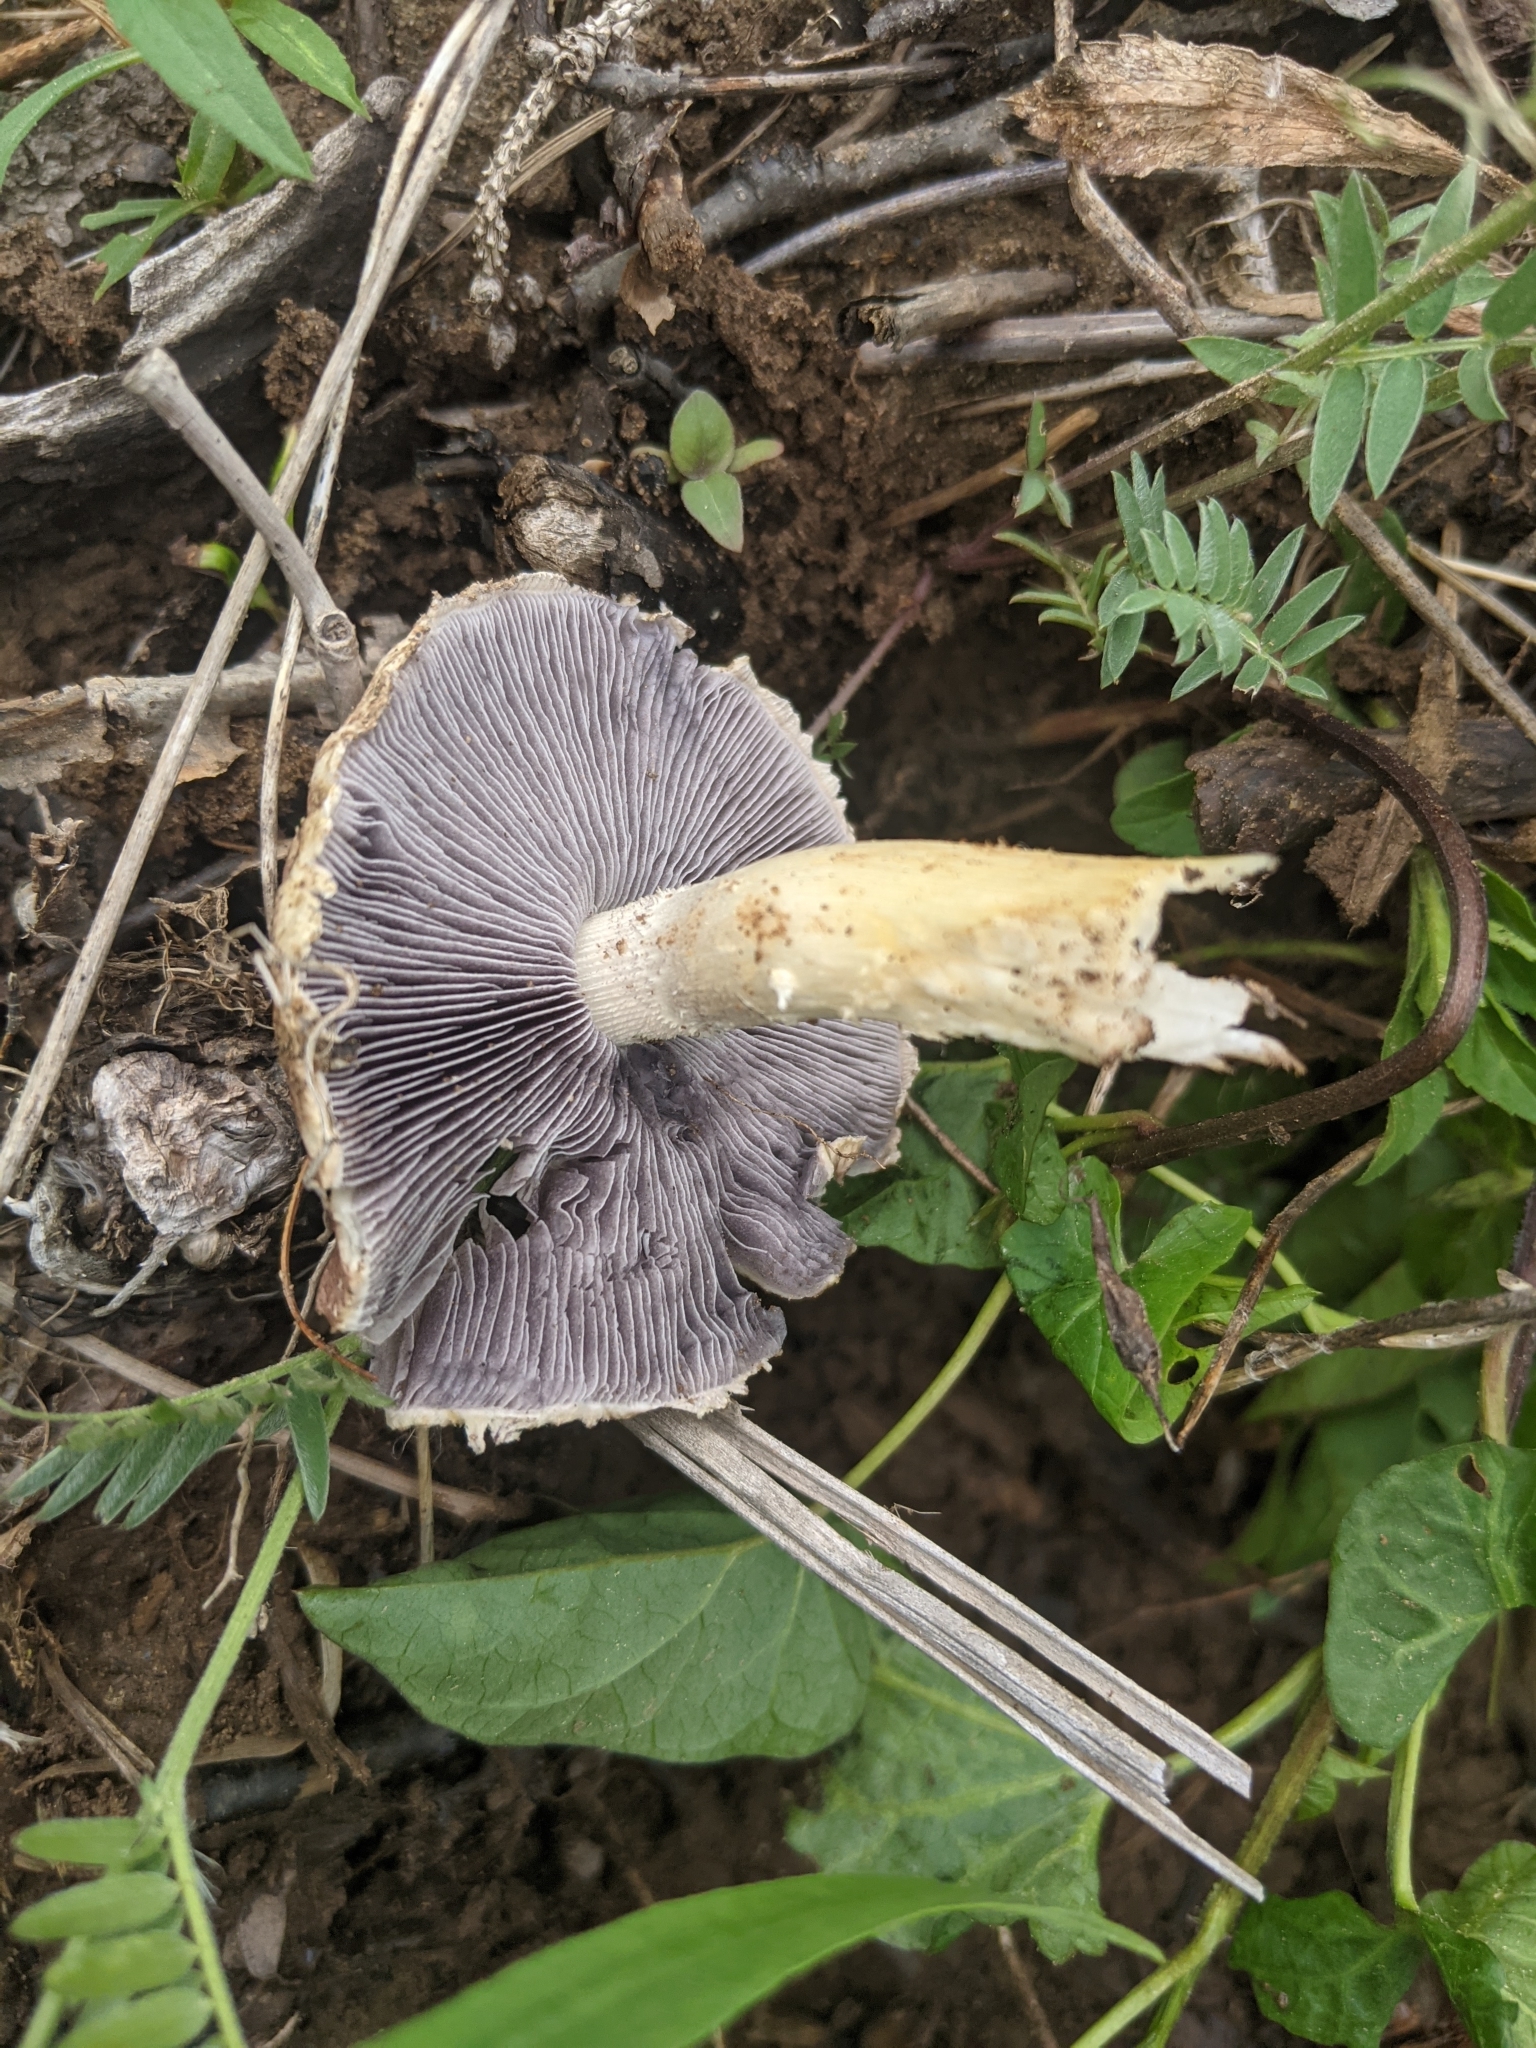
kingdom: Fungi
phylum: Basidiomycota
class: Agaricomycetes
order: Agaricales
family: Strophariaceae
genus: Stropharia
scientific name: Stropharia rugosoannulata
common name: Wine roundhead
